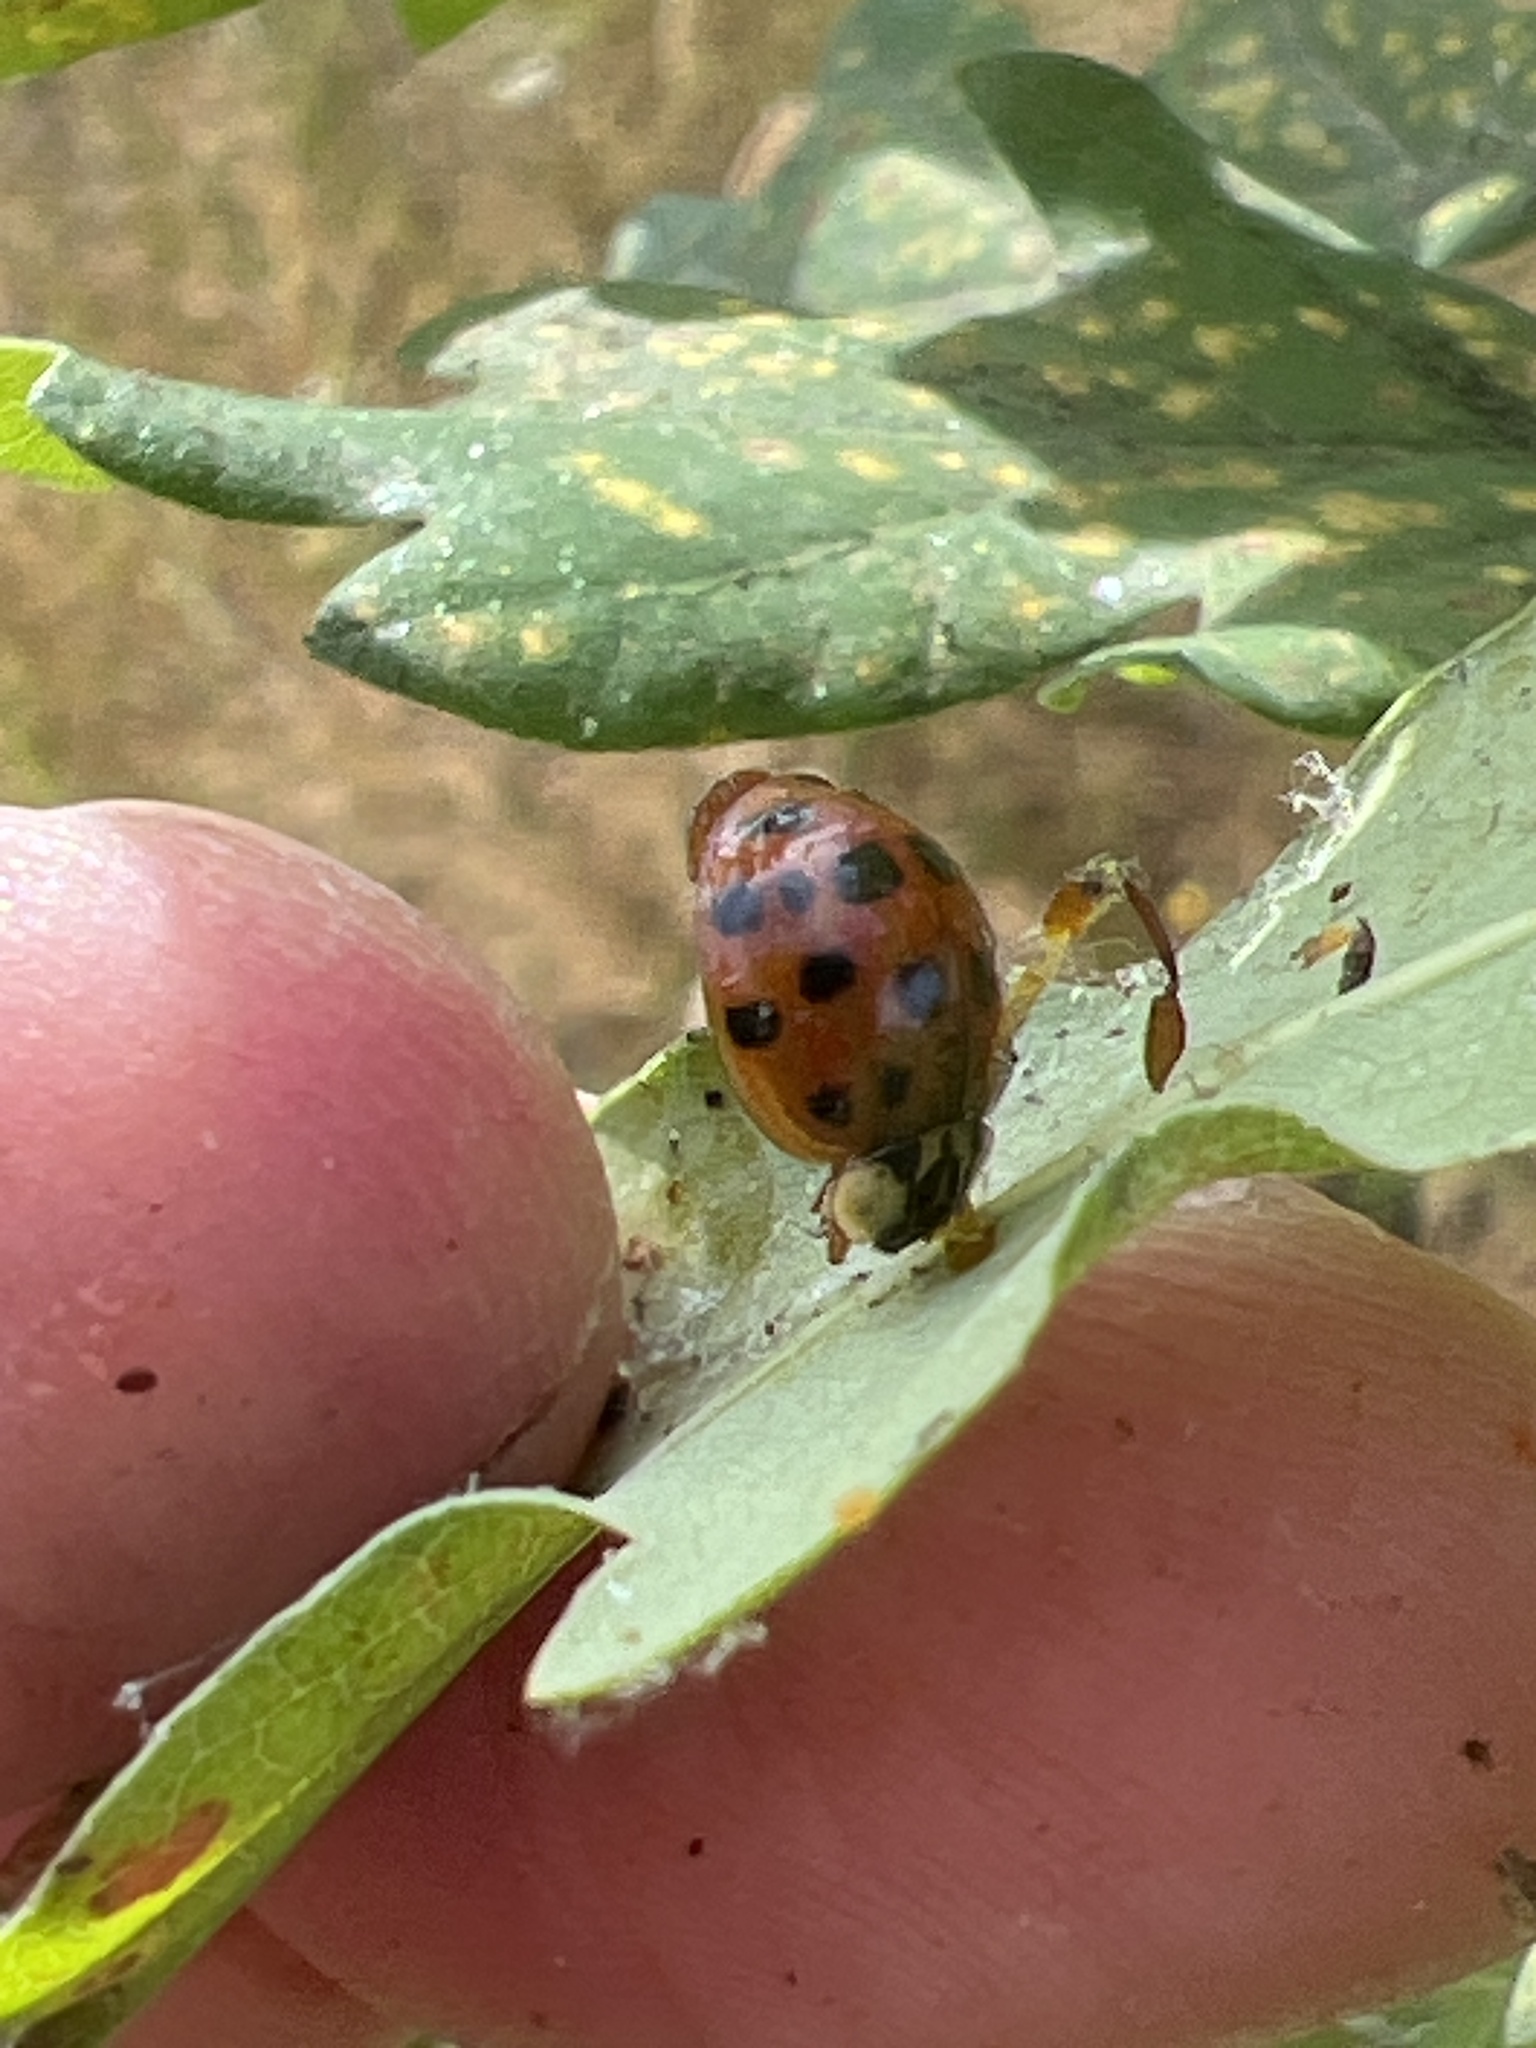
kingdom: Animalia
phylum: Arthropoda
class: Insecta
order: Coleoptera
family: Coccinellidae
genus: Harmonia
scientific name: Harmonia axyridis
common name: Harlequin ladybird
